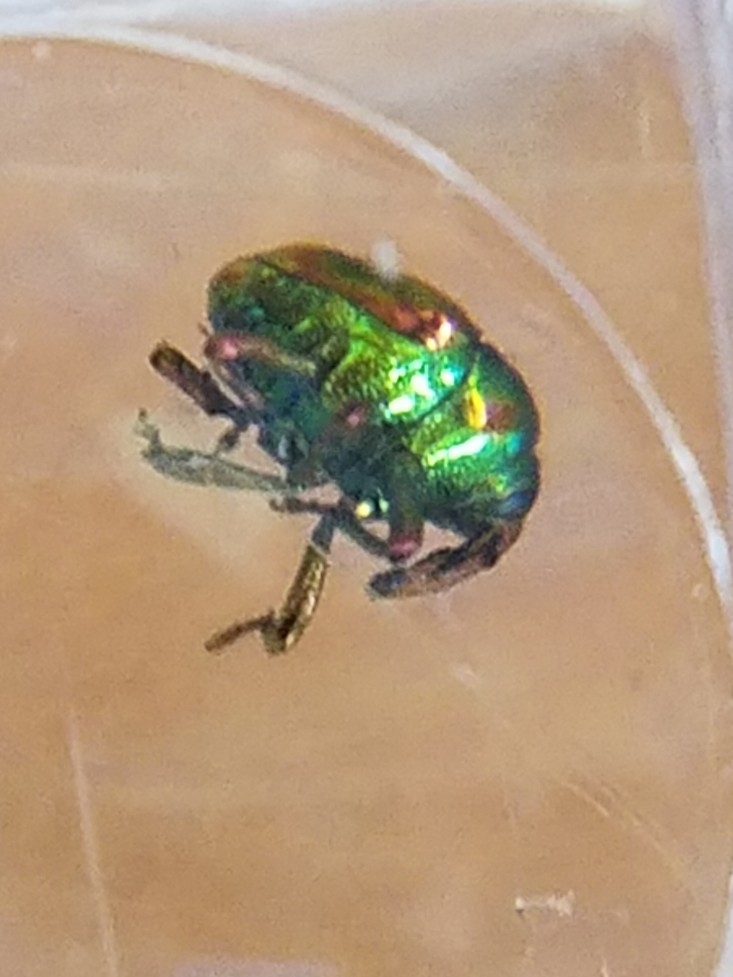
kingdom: Animalia
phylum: Arthropoda
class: Insecta
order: Coleoptera
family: Eurhynchidae
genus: Eurhinus
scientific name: Eurhinus magnificus
